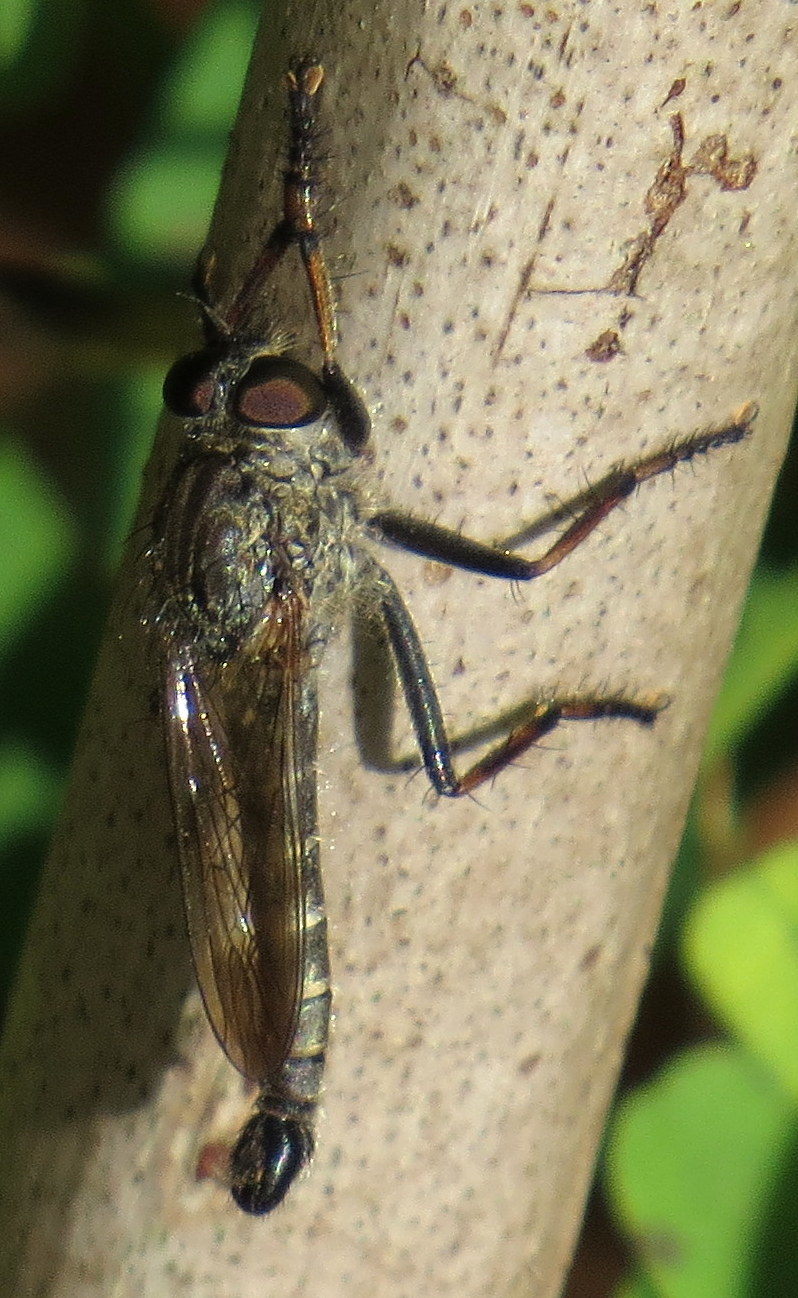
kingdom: Animalia
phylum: Arthropoda
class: Insecta
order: Diptera
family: Asilidae
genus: Machimus
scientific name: Machimus sadyates
